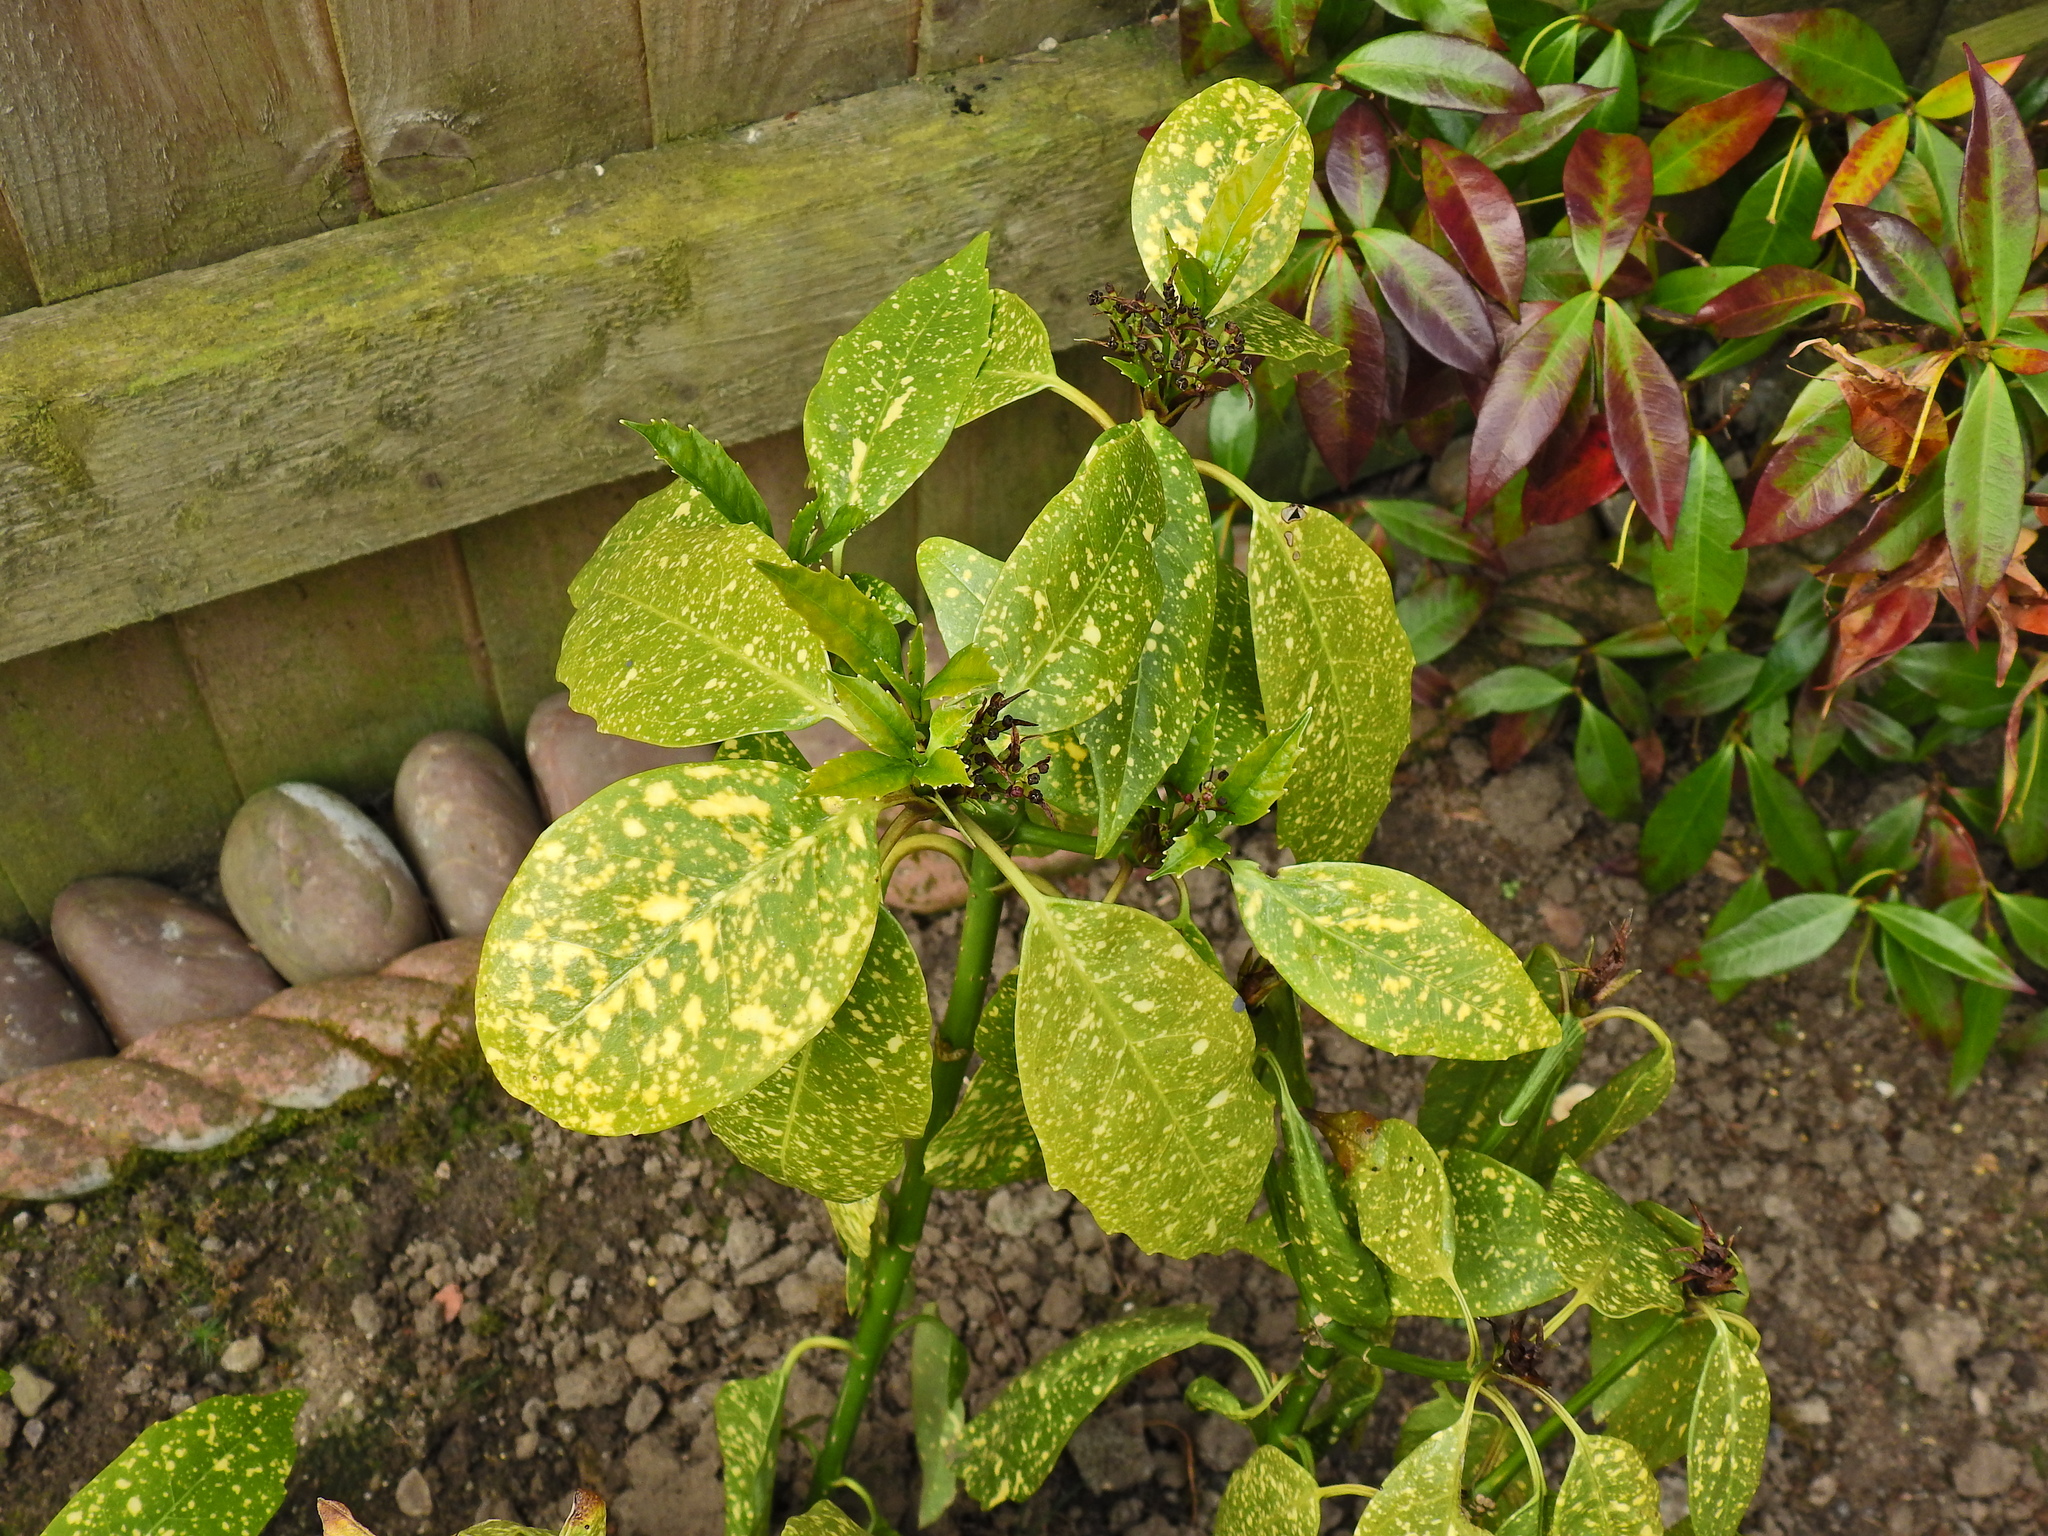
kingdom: Plantae
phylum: Tracheophyta
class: Magnoliopsida
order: Garryales
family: Garryaceae
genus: Aucuba
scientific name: Aucuba japonica
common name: Spotted-laurel
